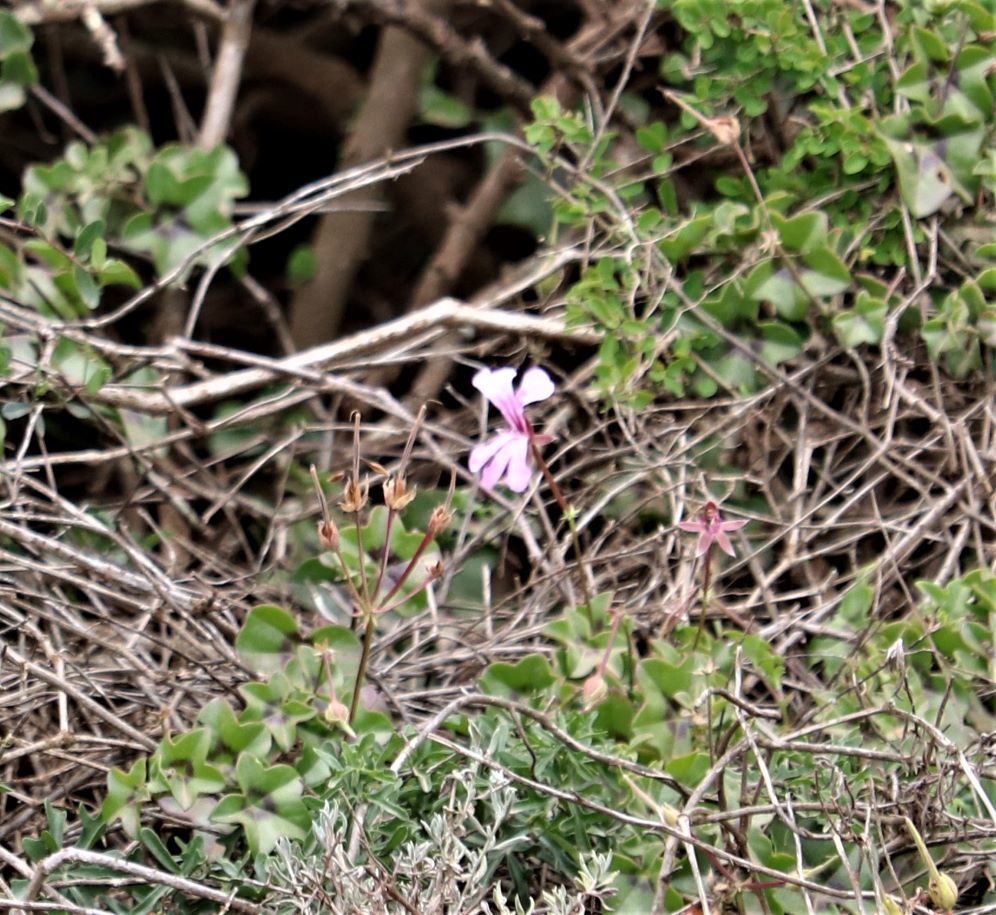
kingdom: Plantae
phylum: Tracheophyta
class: Magnoliopsida
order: Geraniales
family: Geraniaceae
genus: Pelargonium
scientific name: Pelargonium peltatum
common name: Ivyleaf geranium
